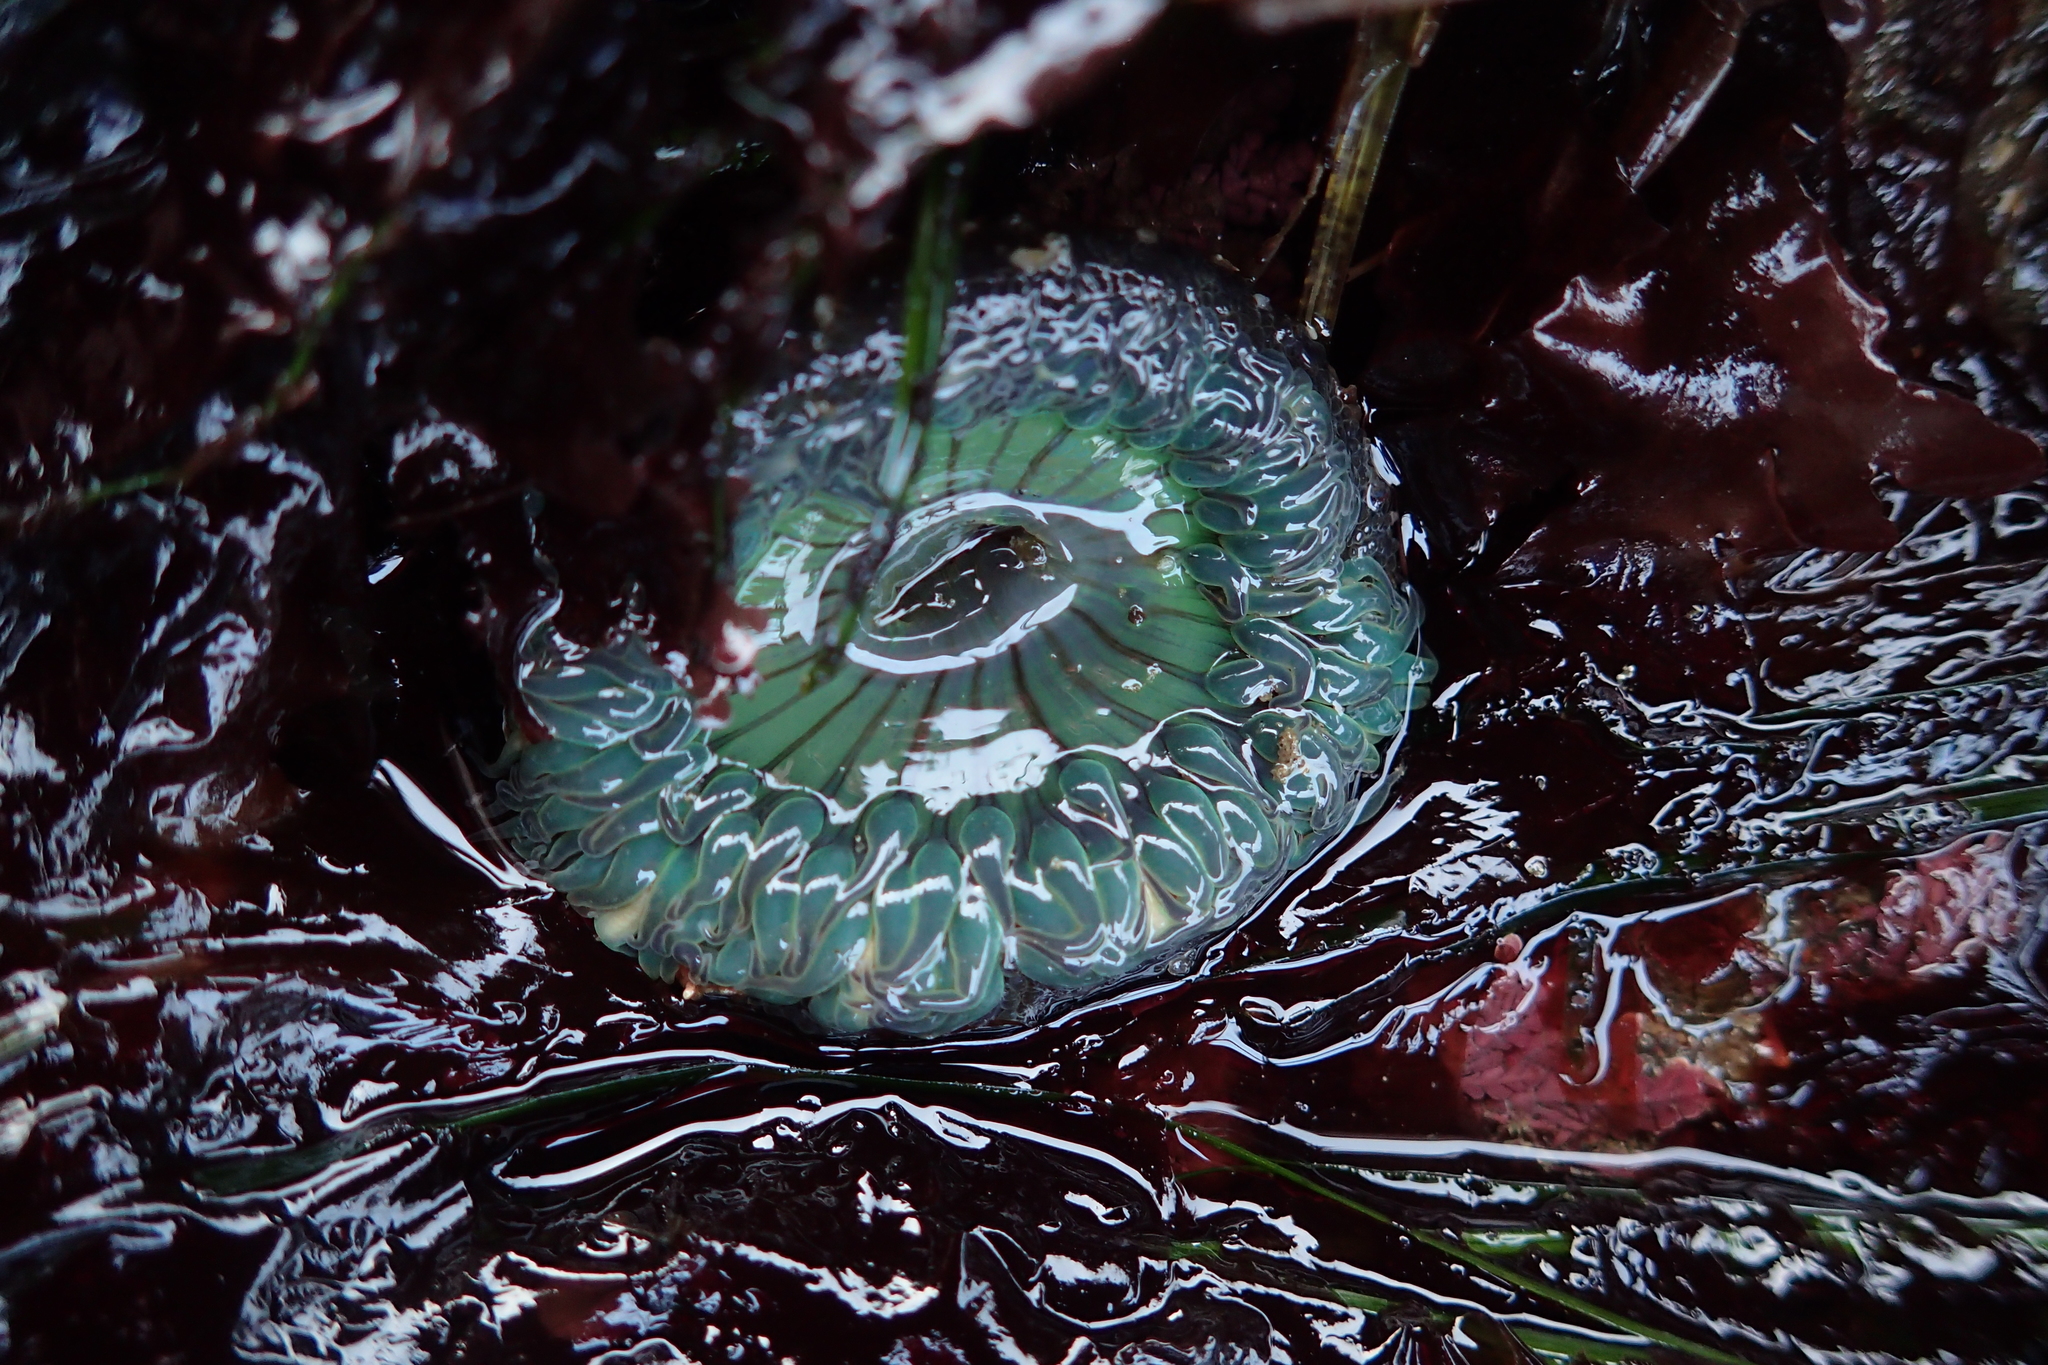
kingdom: Animalia
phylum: Cnidaria
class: Anthozoa
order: Actiniaria
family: Actiniidae
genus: Anthopleura
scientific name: Anthopleura sola
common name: Sun anemone
